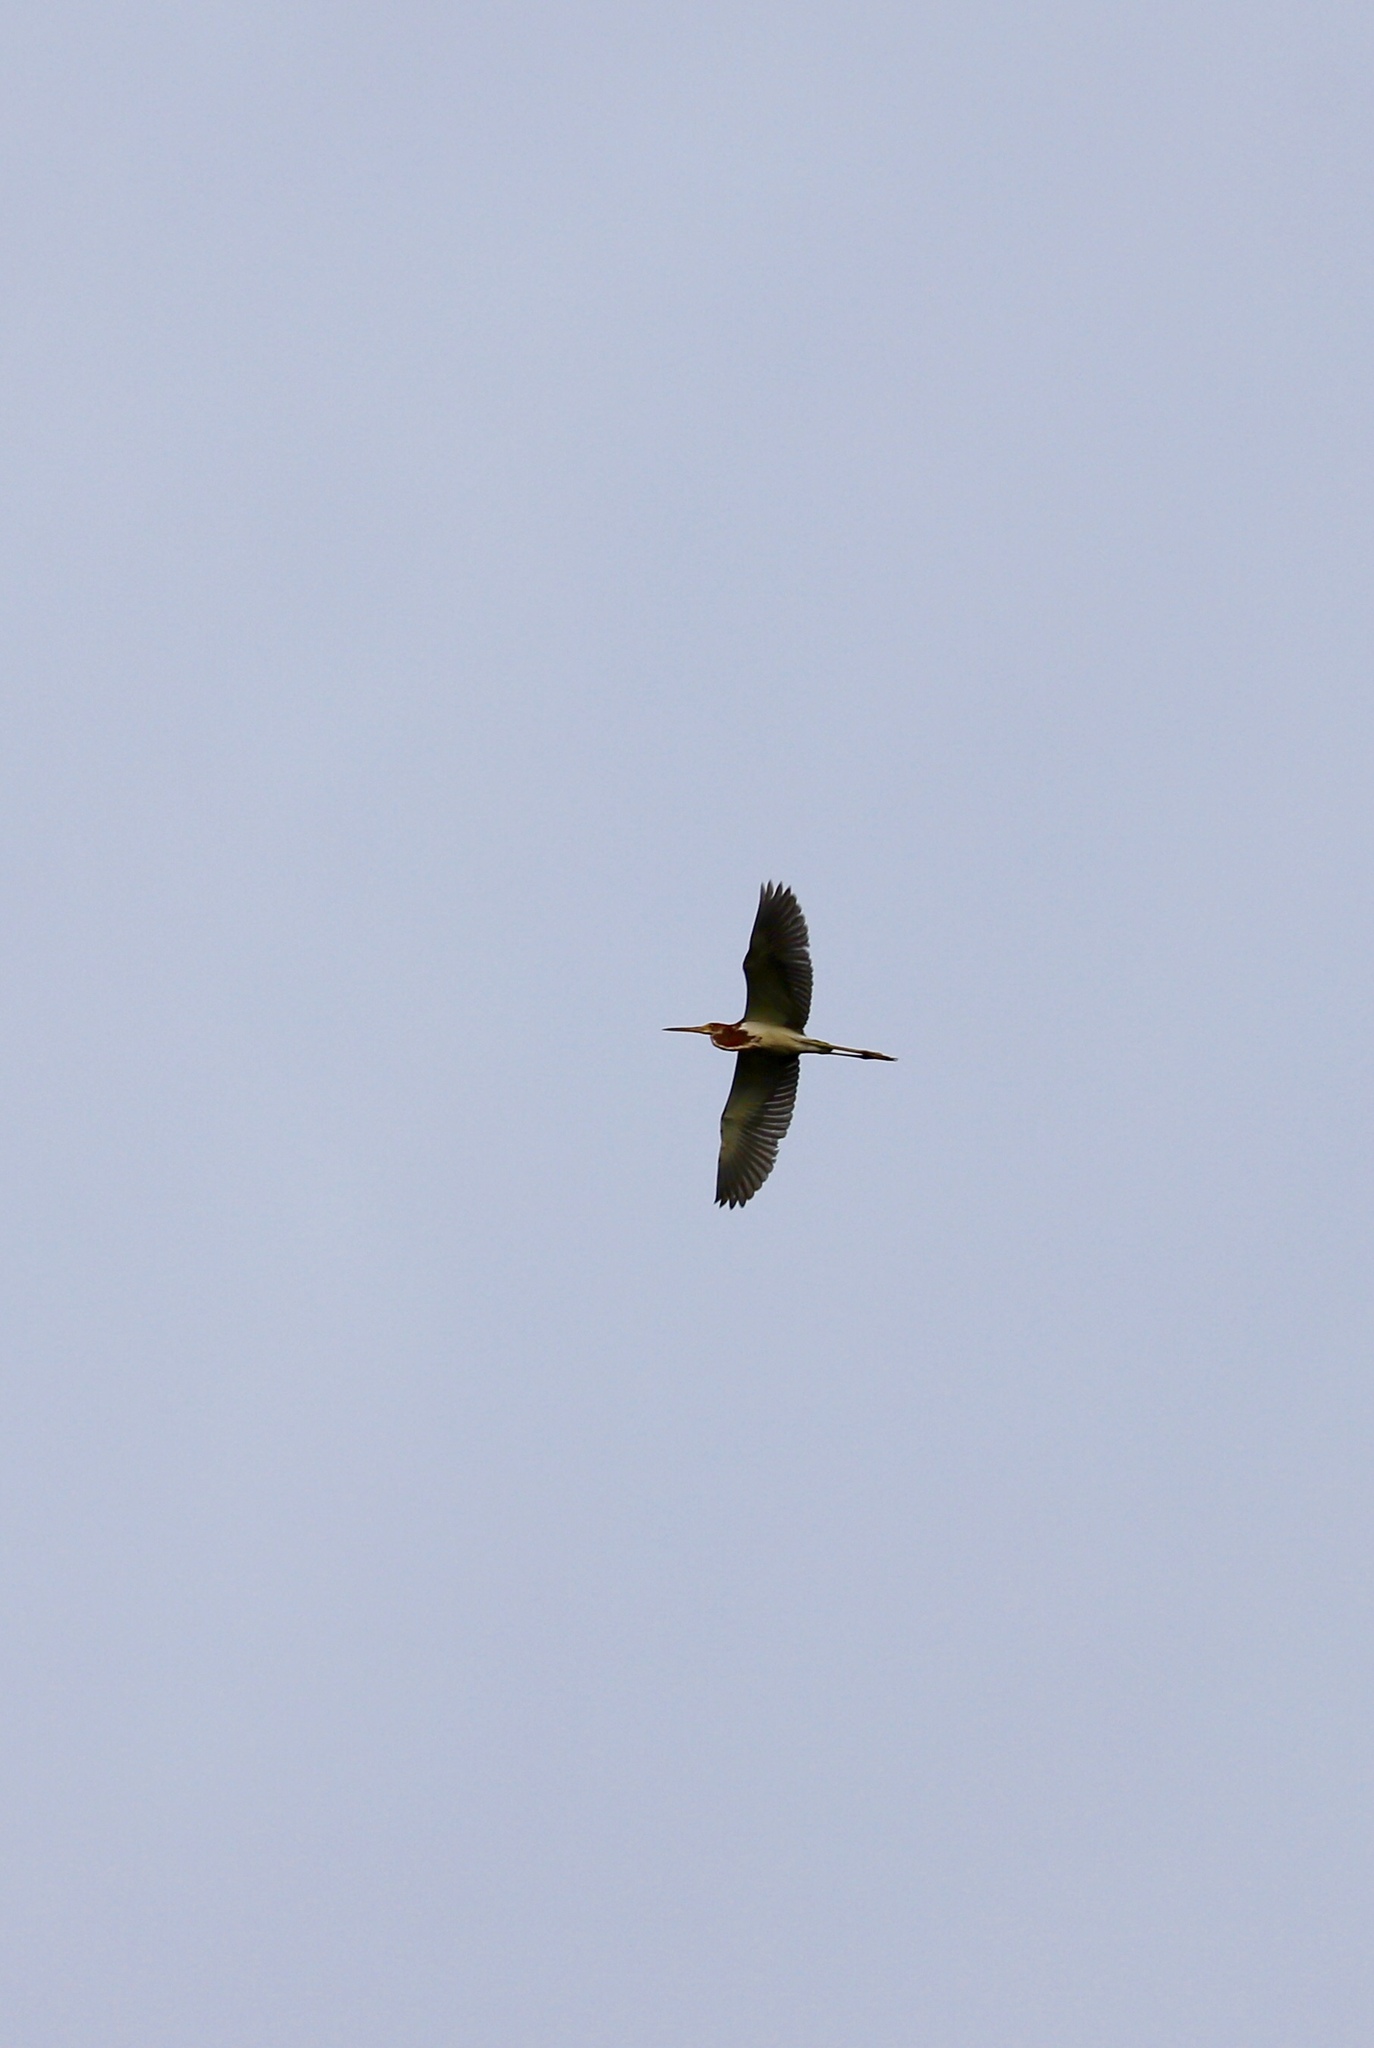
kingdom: Animalia
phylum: Chordata
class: Aves
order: Pelecaniformes
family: Ardeidae
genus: Egretta
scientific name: Egretta tricolor
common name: Tricolored heron
